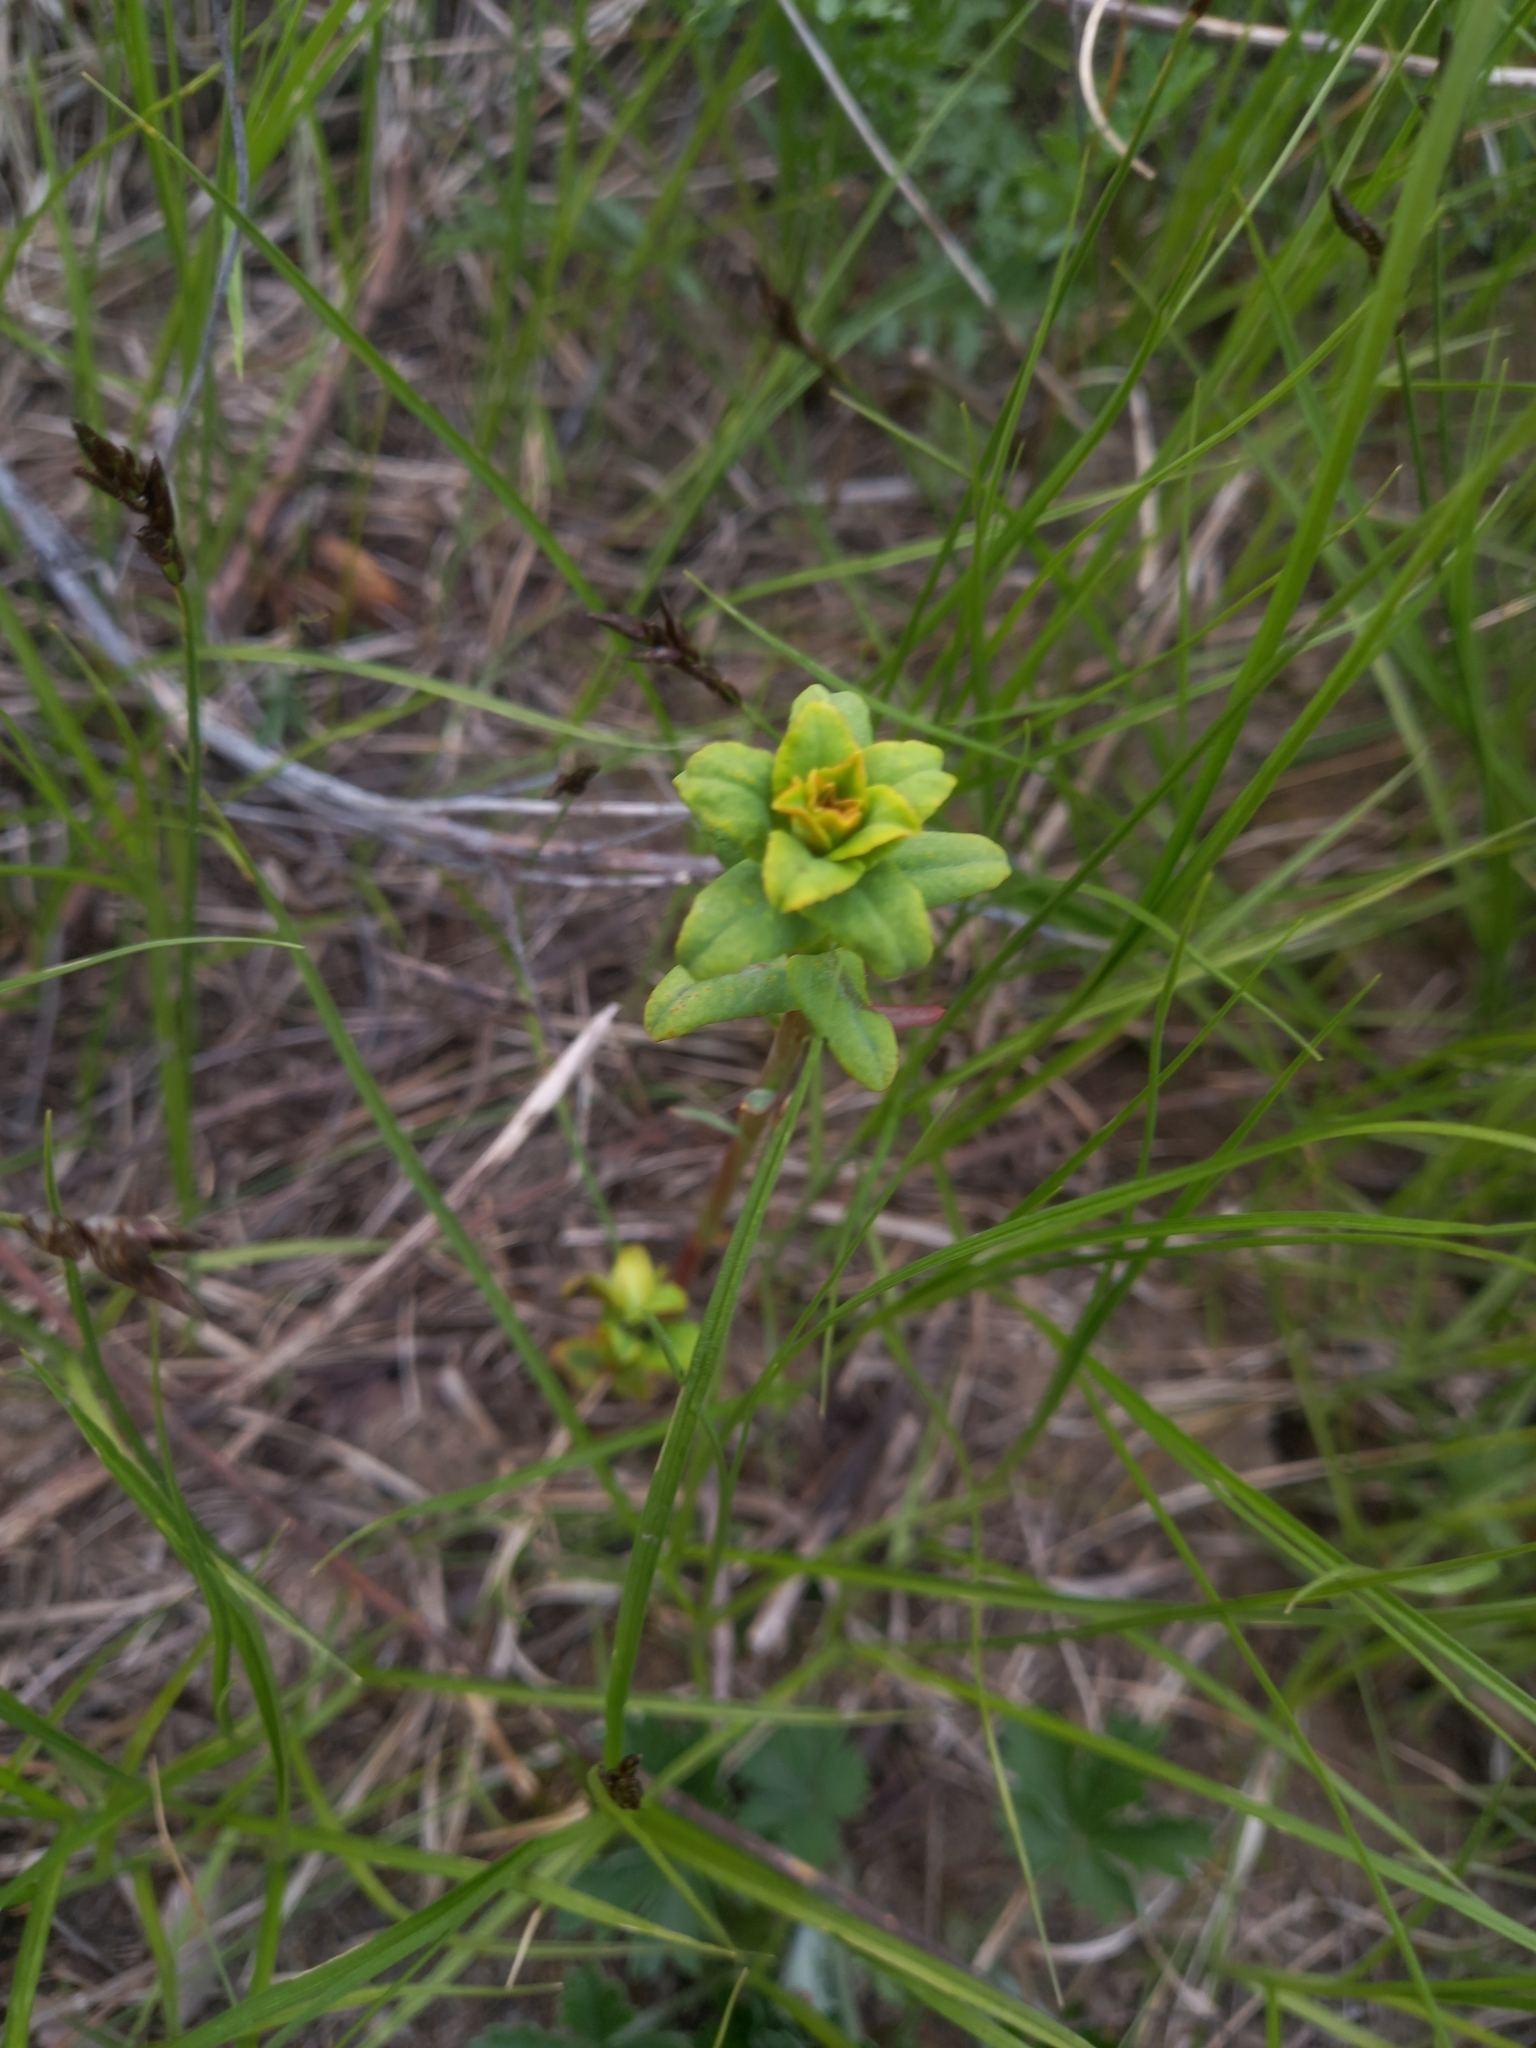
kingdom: Plantae
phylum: Tracheophyta
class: Magnoliopsida
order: Malpighiales
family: Euphorbiaceae
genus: Euphorbia
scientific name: Euphorbia virgata
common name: Leafy spurge
